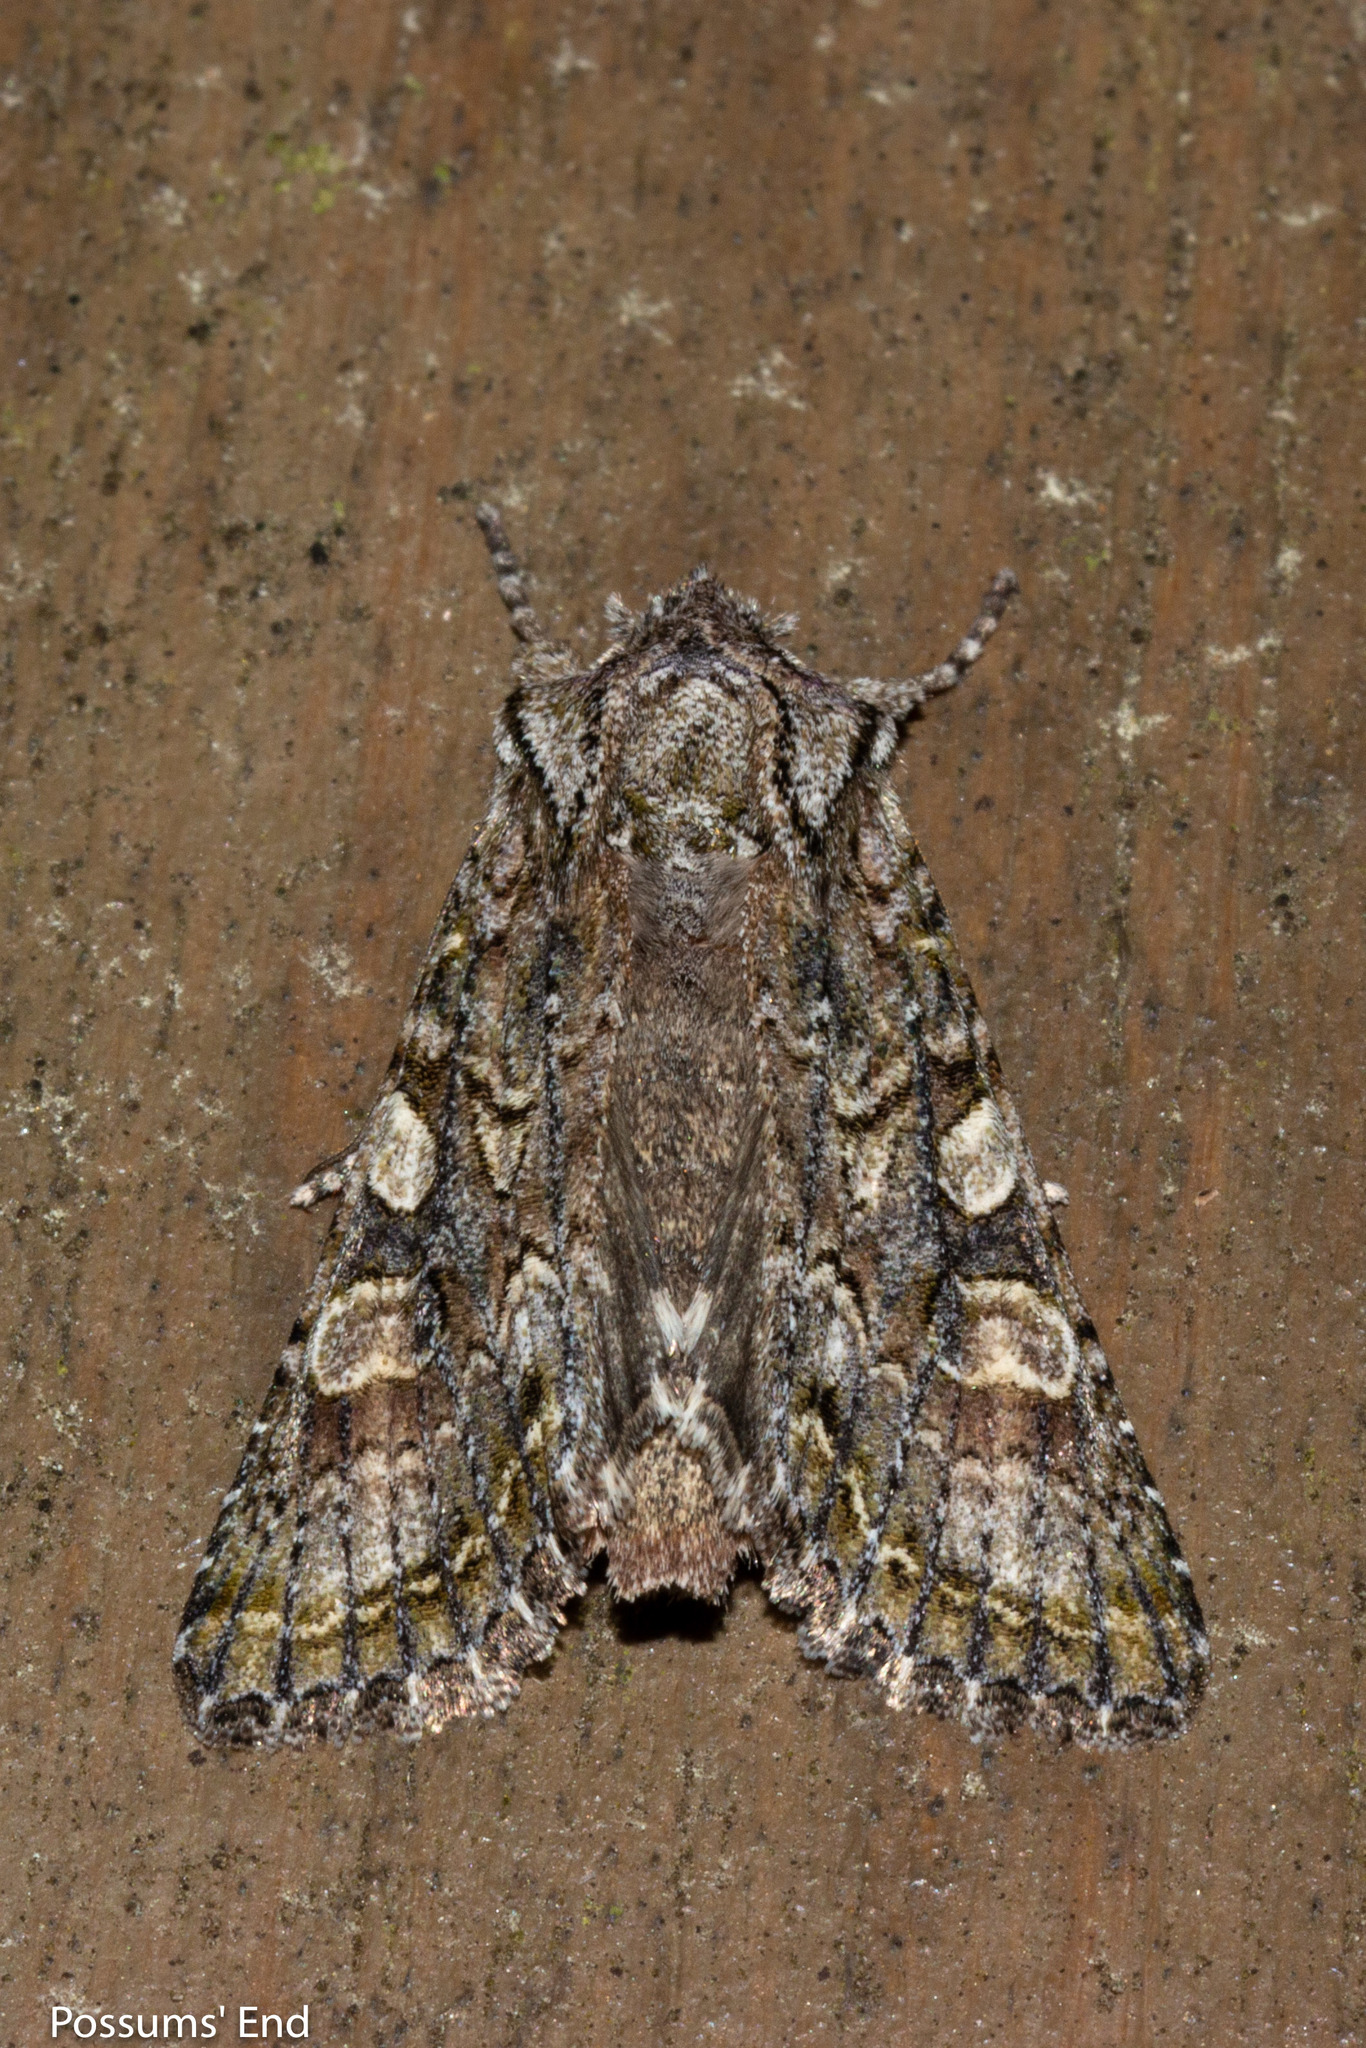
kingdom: Animalia
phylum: Arthropoda
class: Insecta
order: Lepidoptera
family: Noctuidae
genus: Ichneutica
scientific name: Ichneutica mutans
